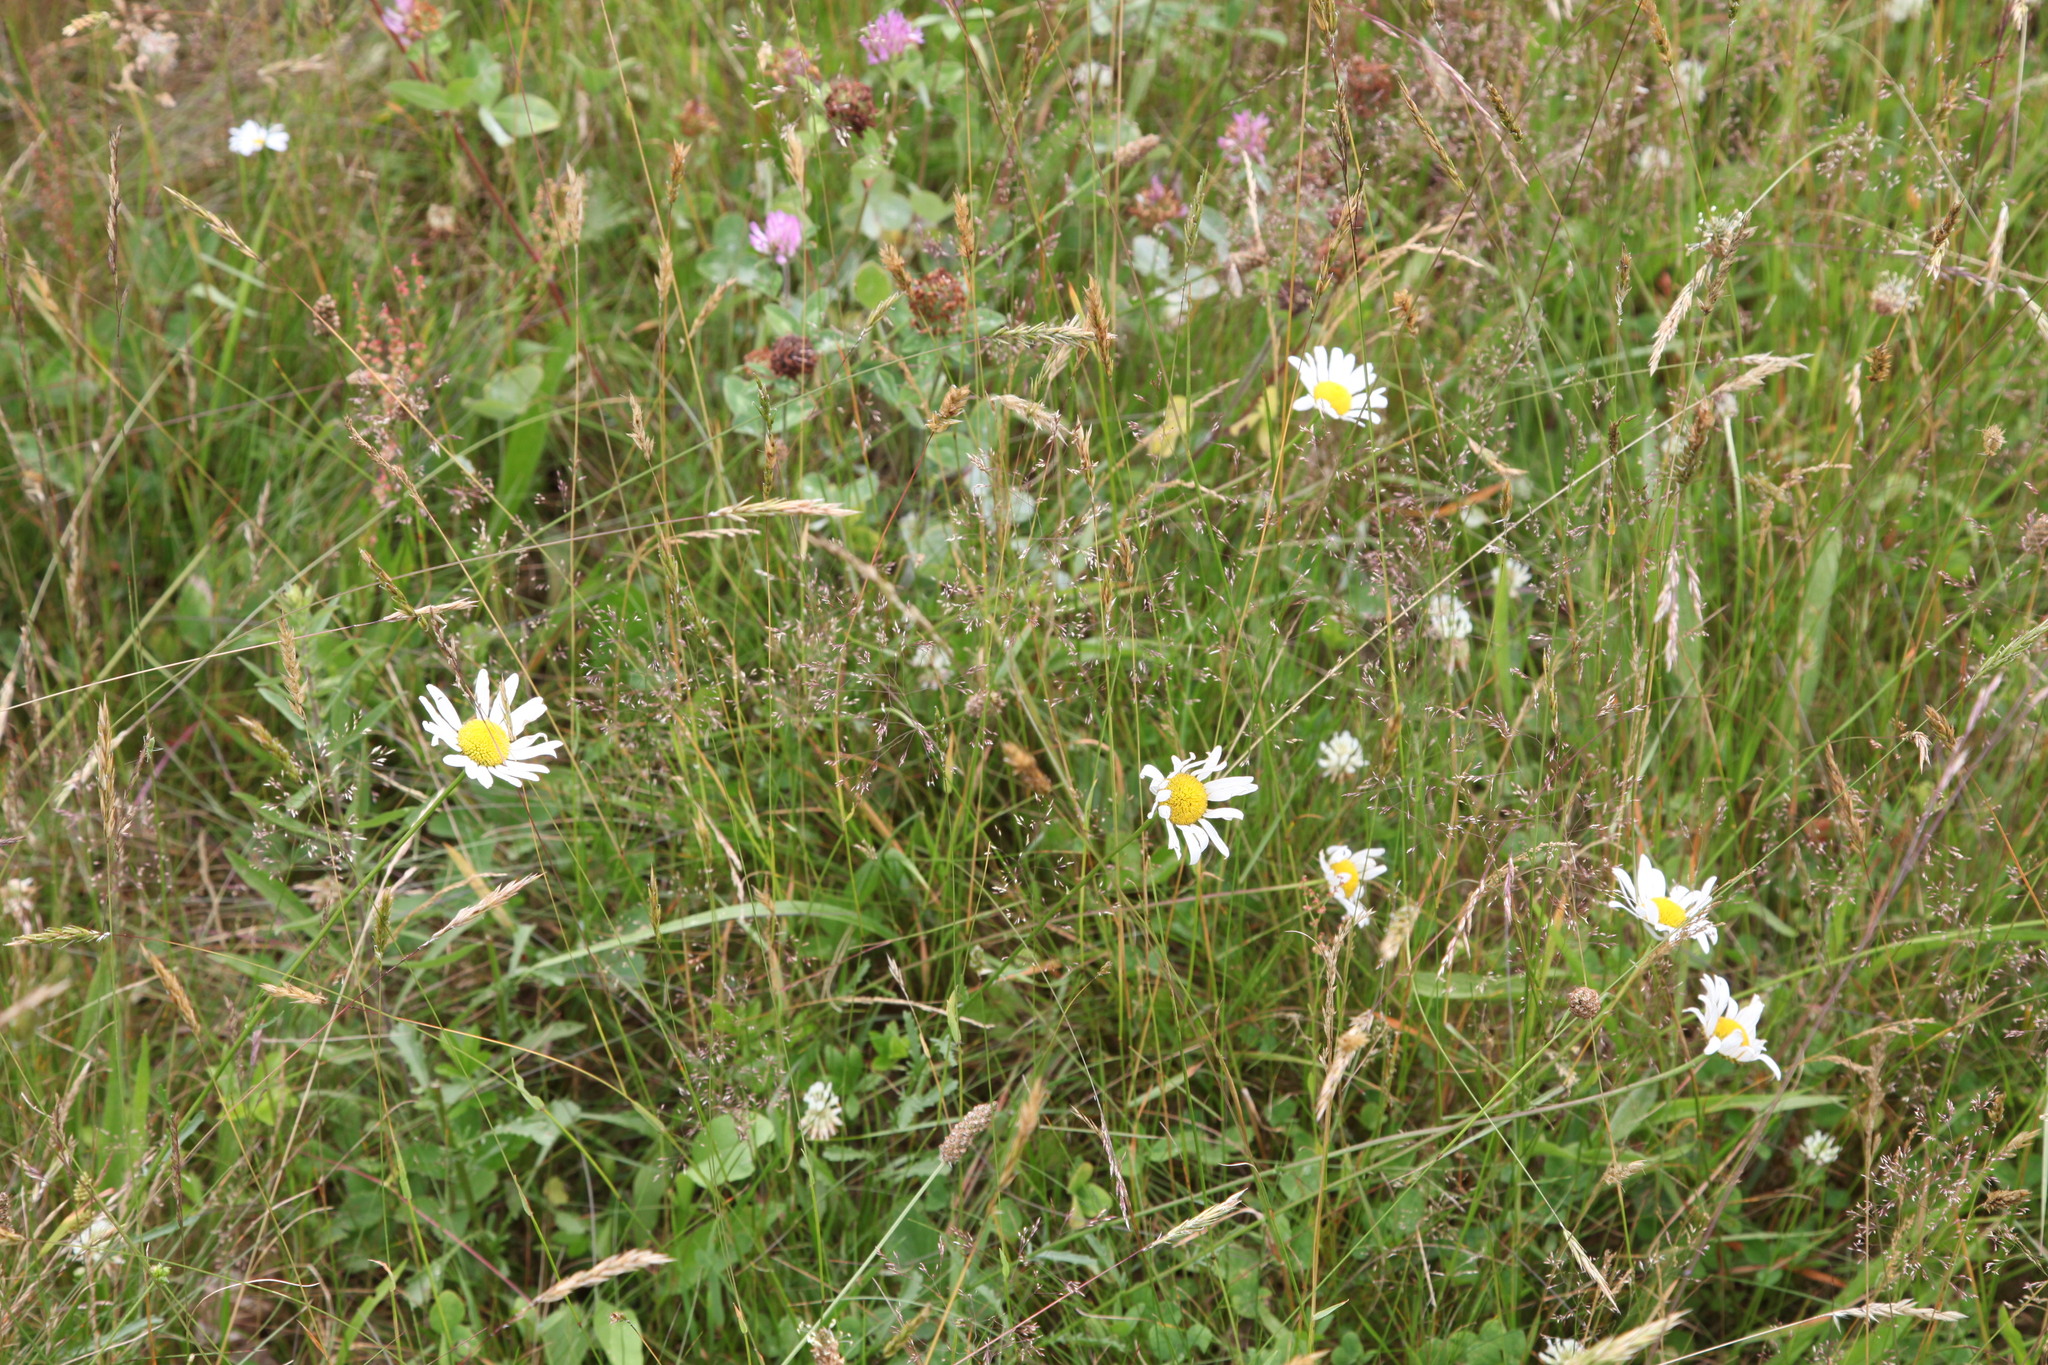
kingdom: Plantae
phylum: Tracheophyta
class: Magnoliopsida
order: Asterales
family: Asteraceae
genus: Leucanthemum
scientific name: Leucanthemum vulgare
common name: Oxeye daisy
